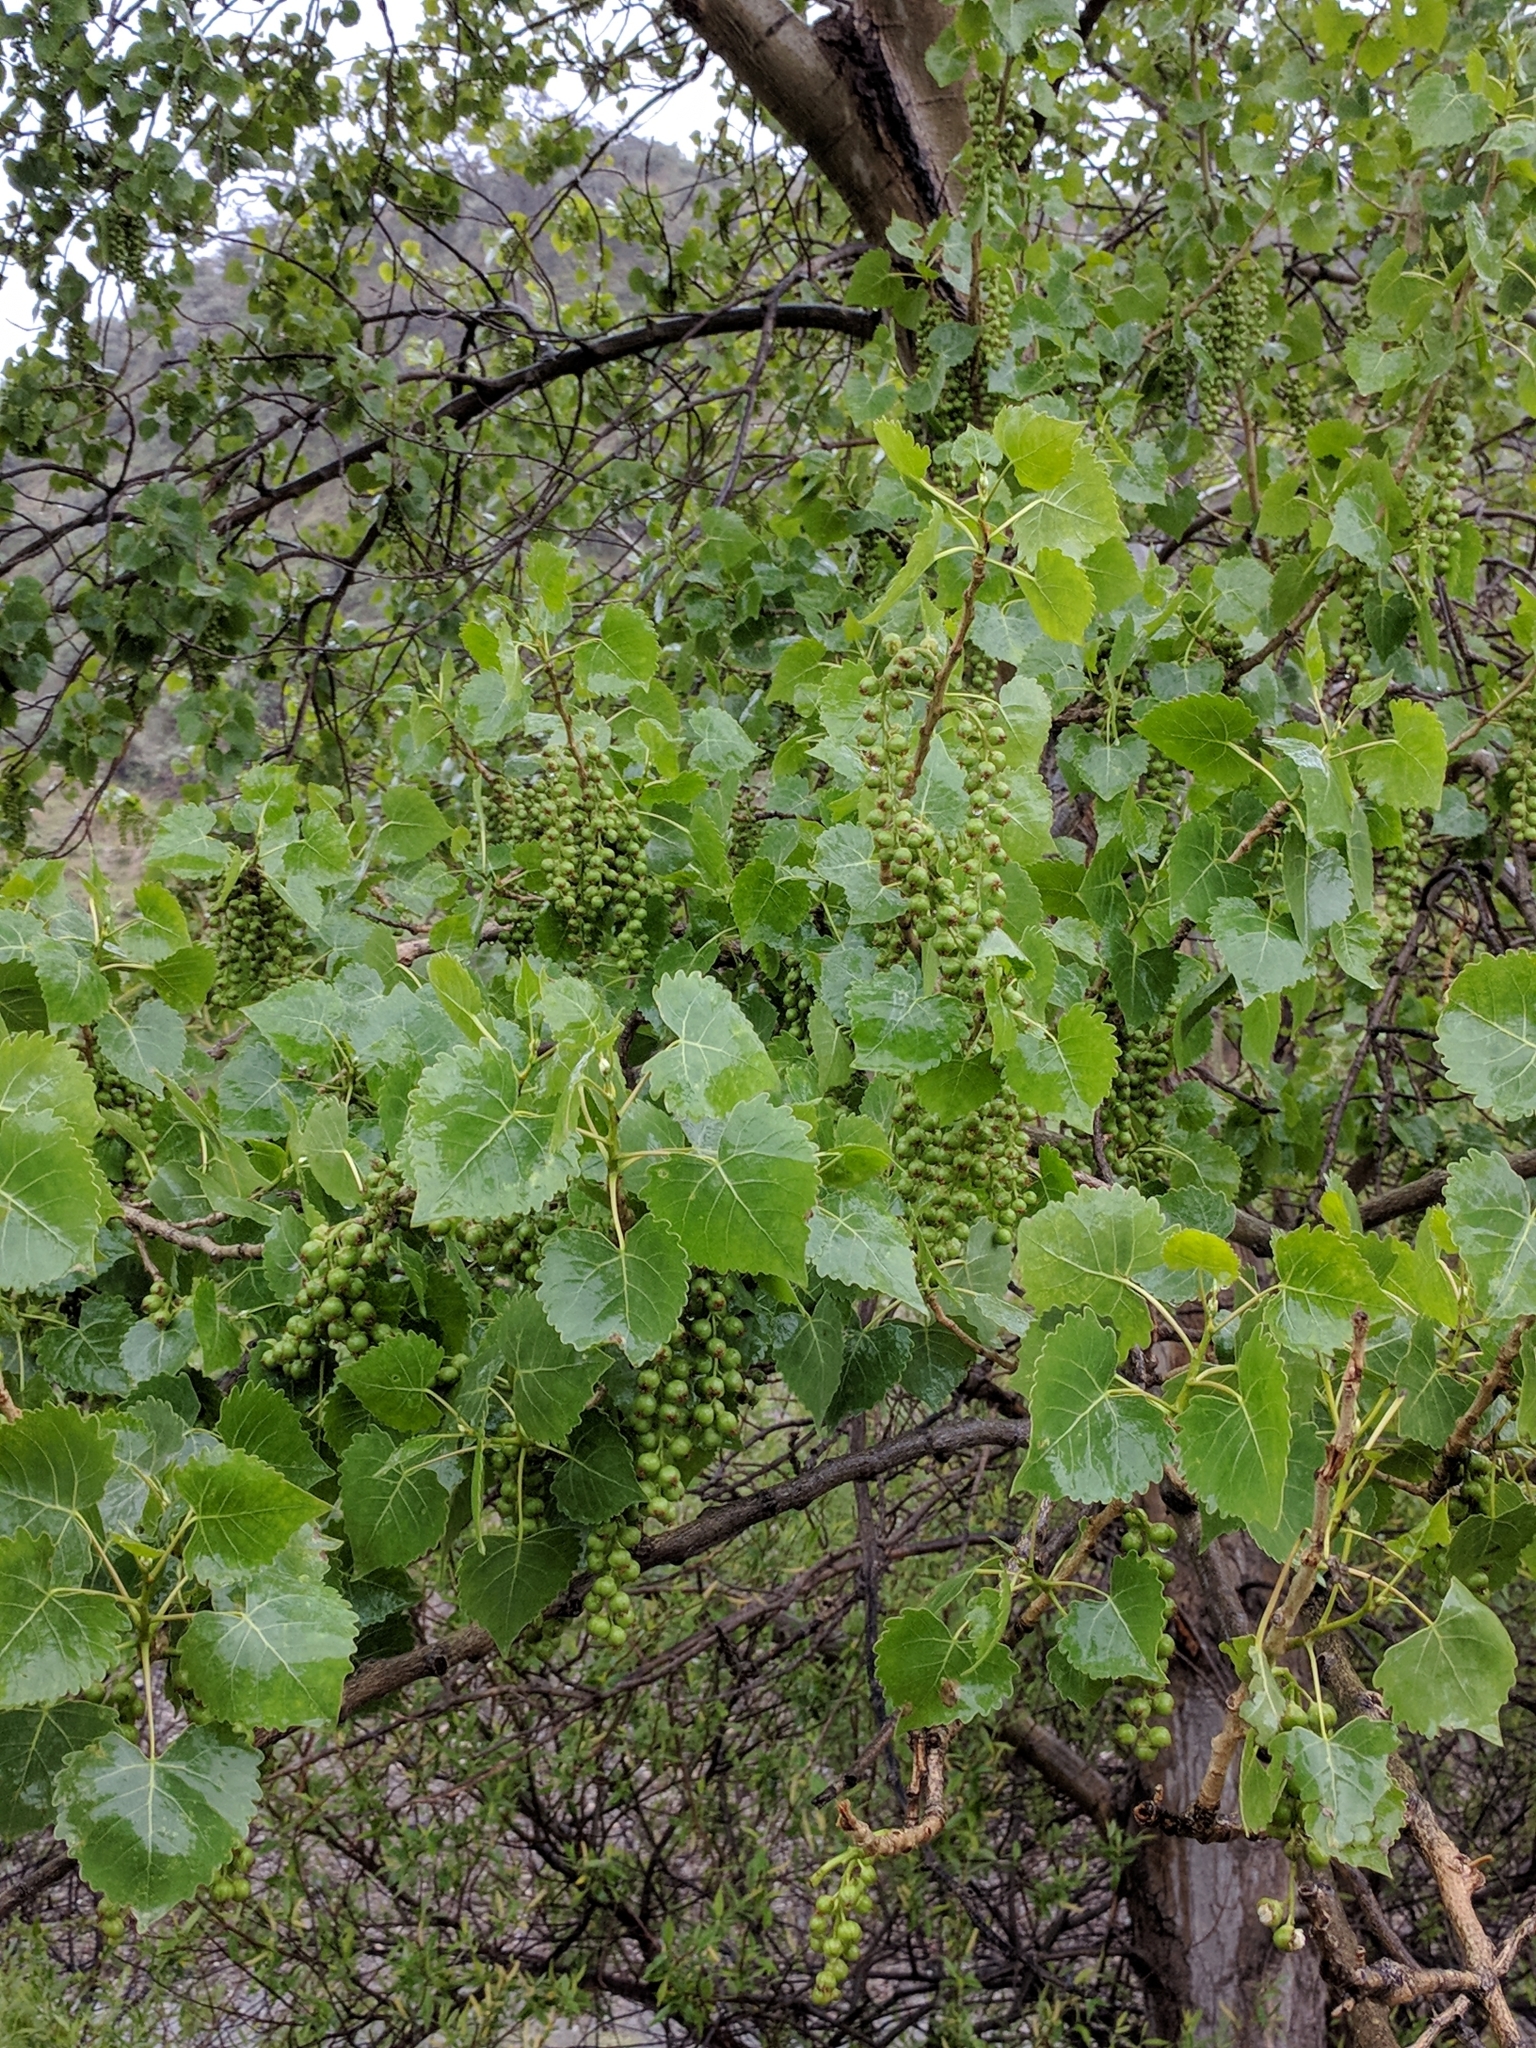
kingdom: Plantae
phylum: Tracheophyta
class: Magnoliopsida
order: Malpighiales
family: Salicaceae
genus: Populus
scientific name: Populus fremontii
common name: Fremont's cottonwood
